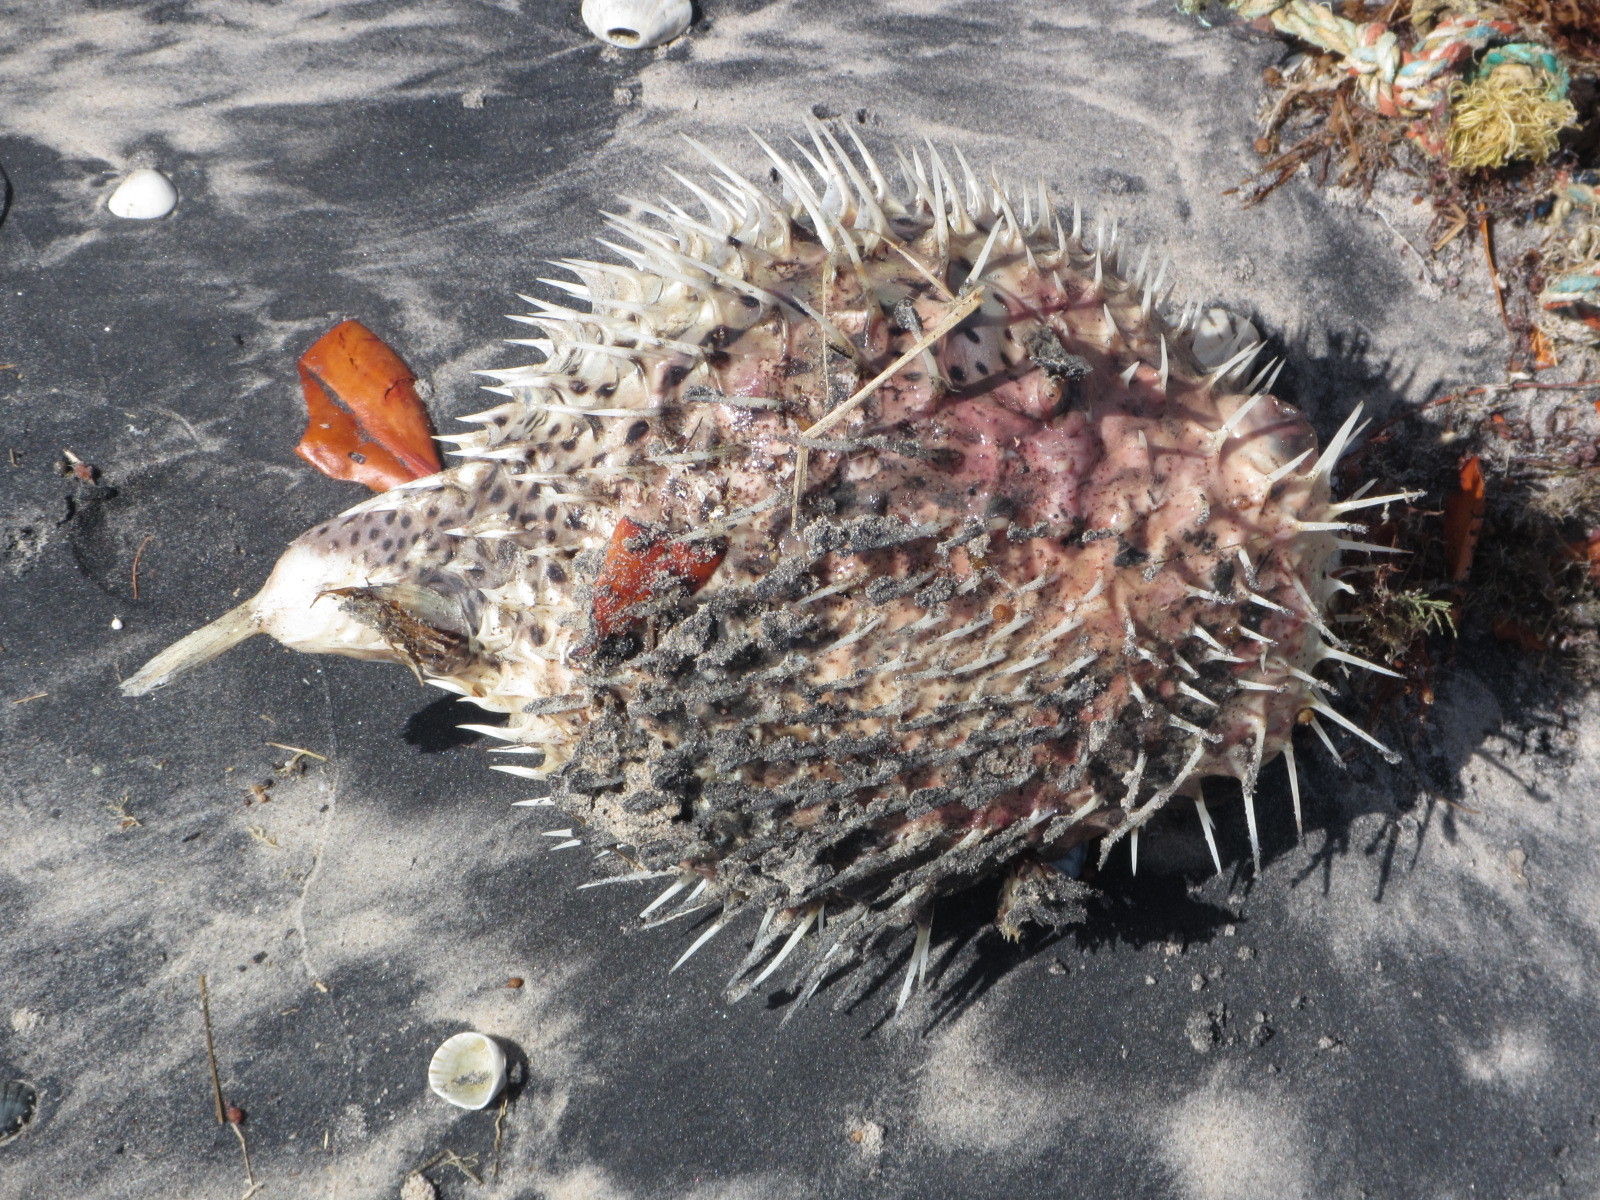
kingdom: Animalia
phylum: Chordata
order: Tetraodontiformes
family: Diodontidae
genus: Diodon
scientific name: Diodon hystrix
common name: Giant porcupinefish
